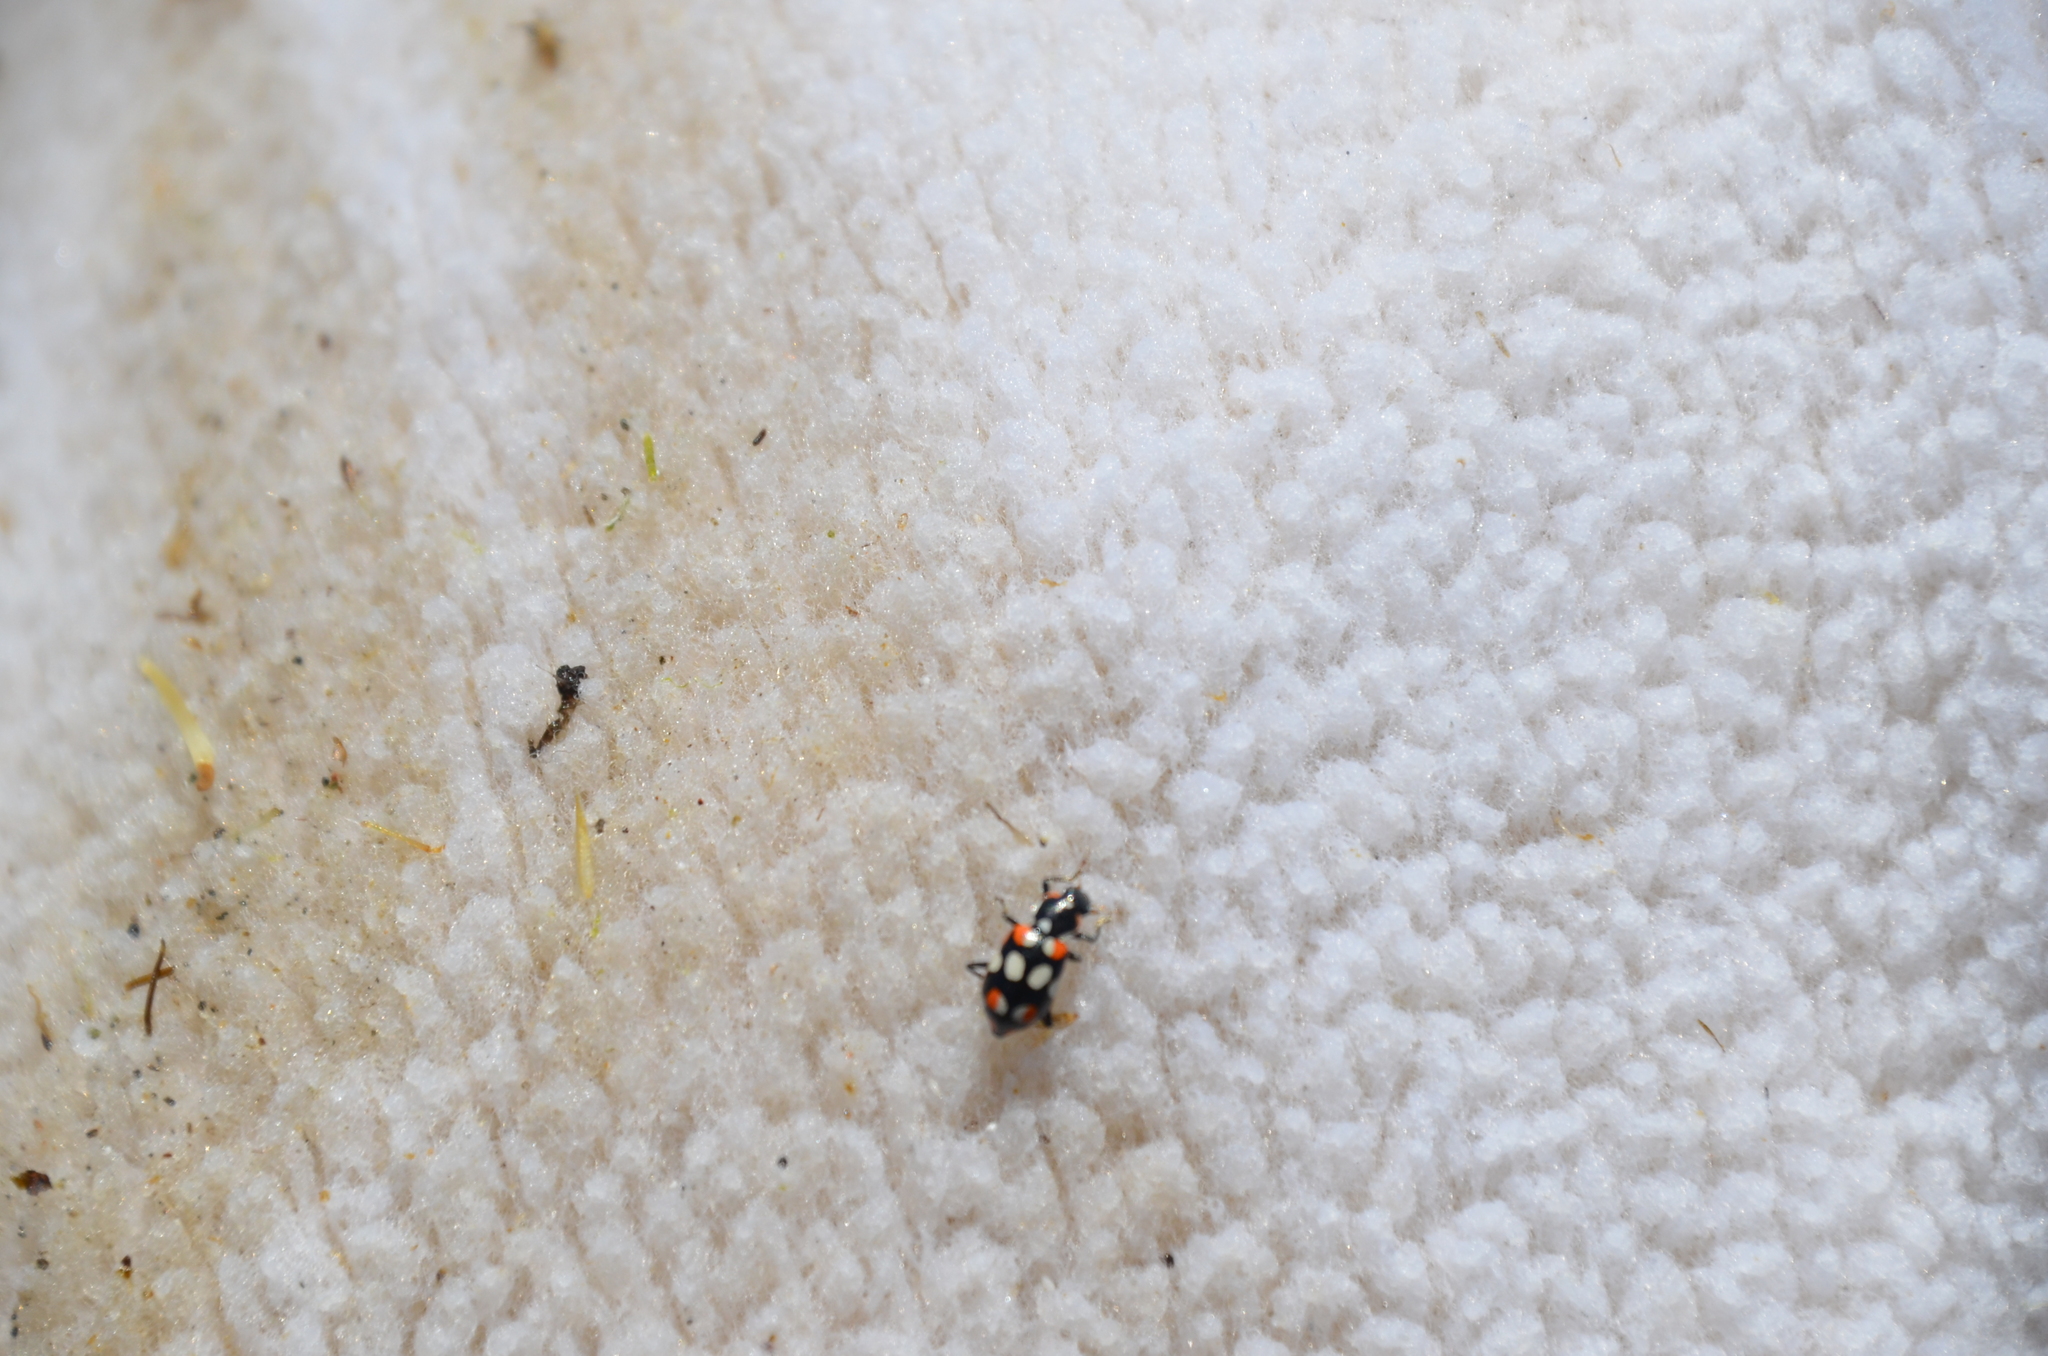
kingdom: Animalia
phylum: Arthropoda
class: Insecta
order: Coleoptera
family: Coccinellidae
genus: Eriopis
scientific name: Eriopis connexa
